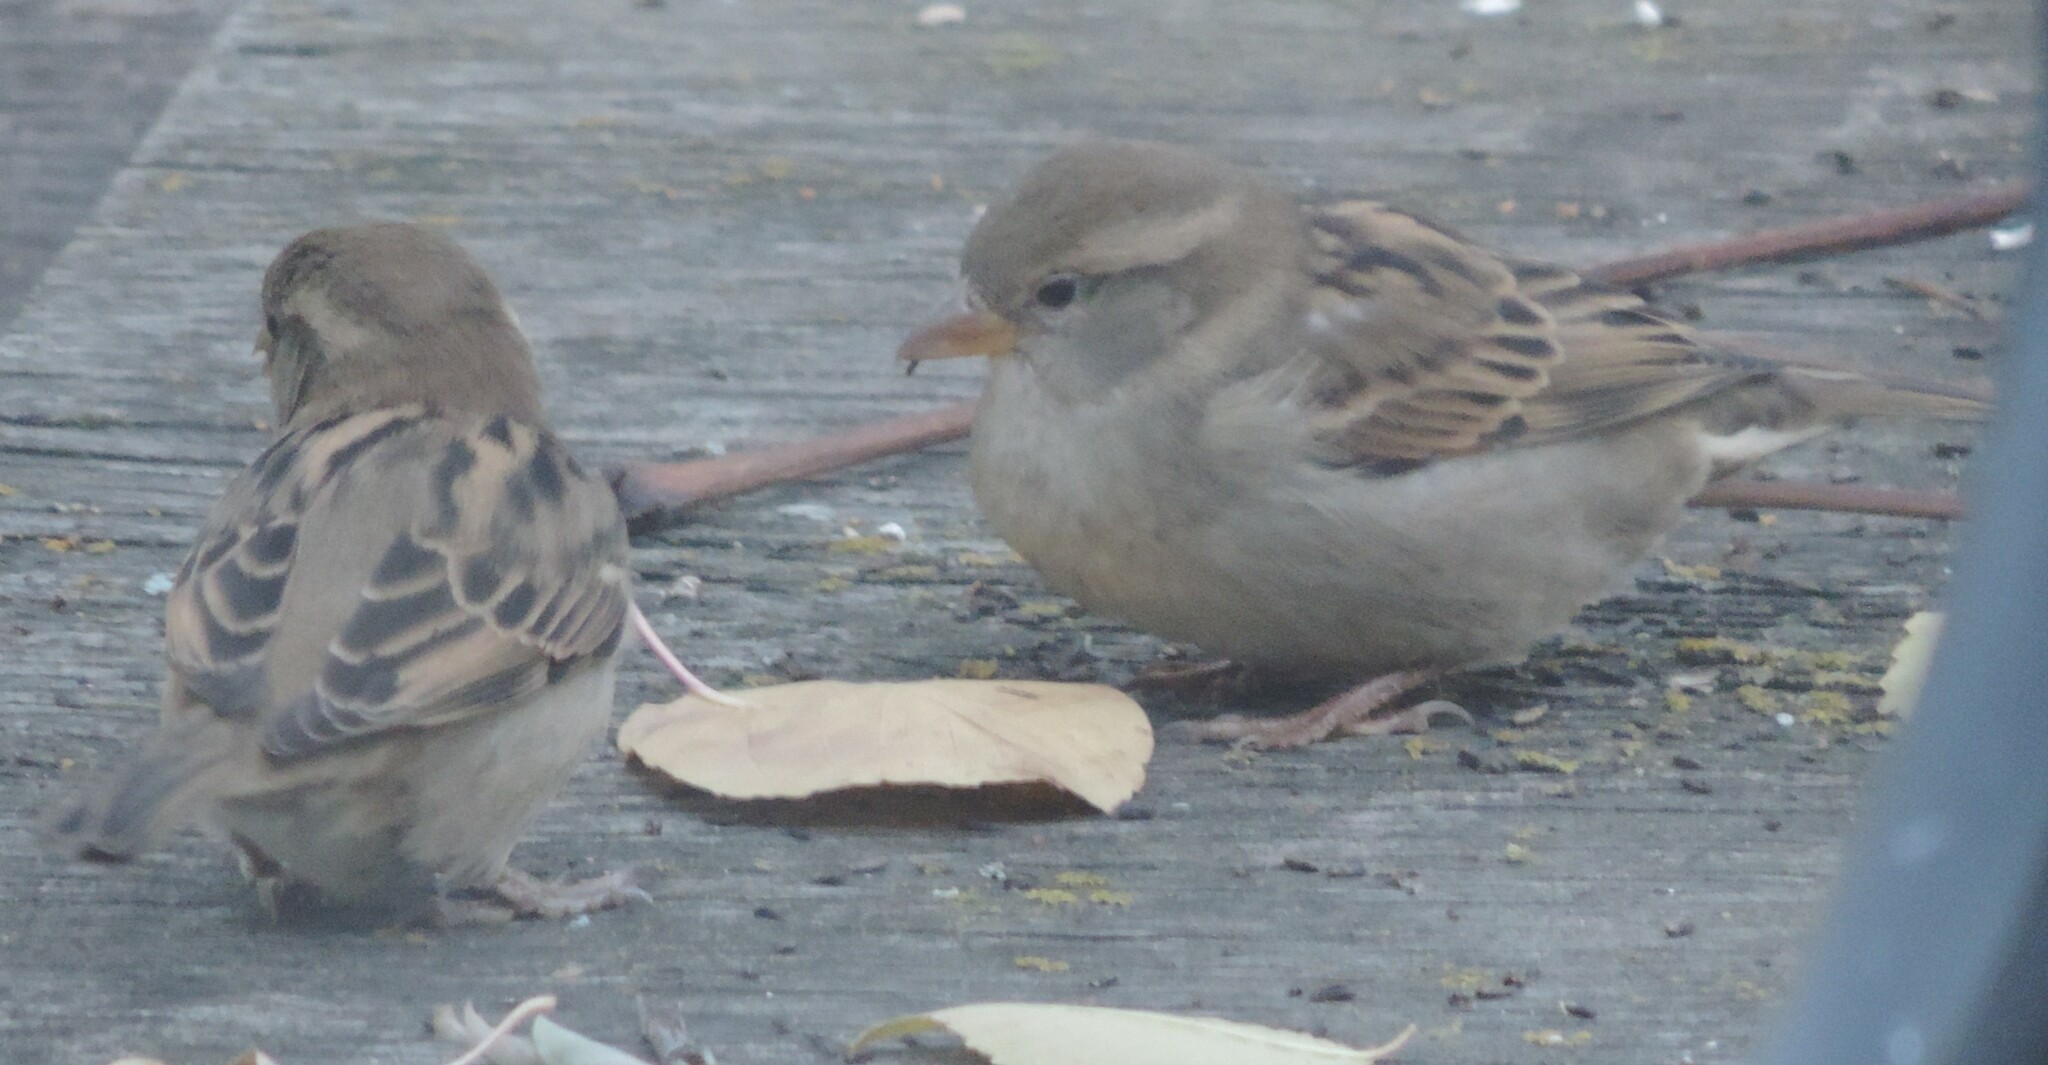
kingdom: Animalia
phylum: Chordata
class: Aves
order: Passeriformes
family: Passeridae
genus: Passer
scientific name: Passer domesticus
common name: House sparrow
